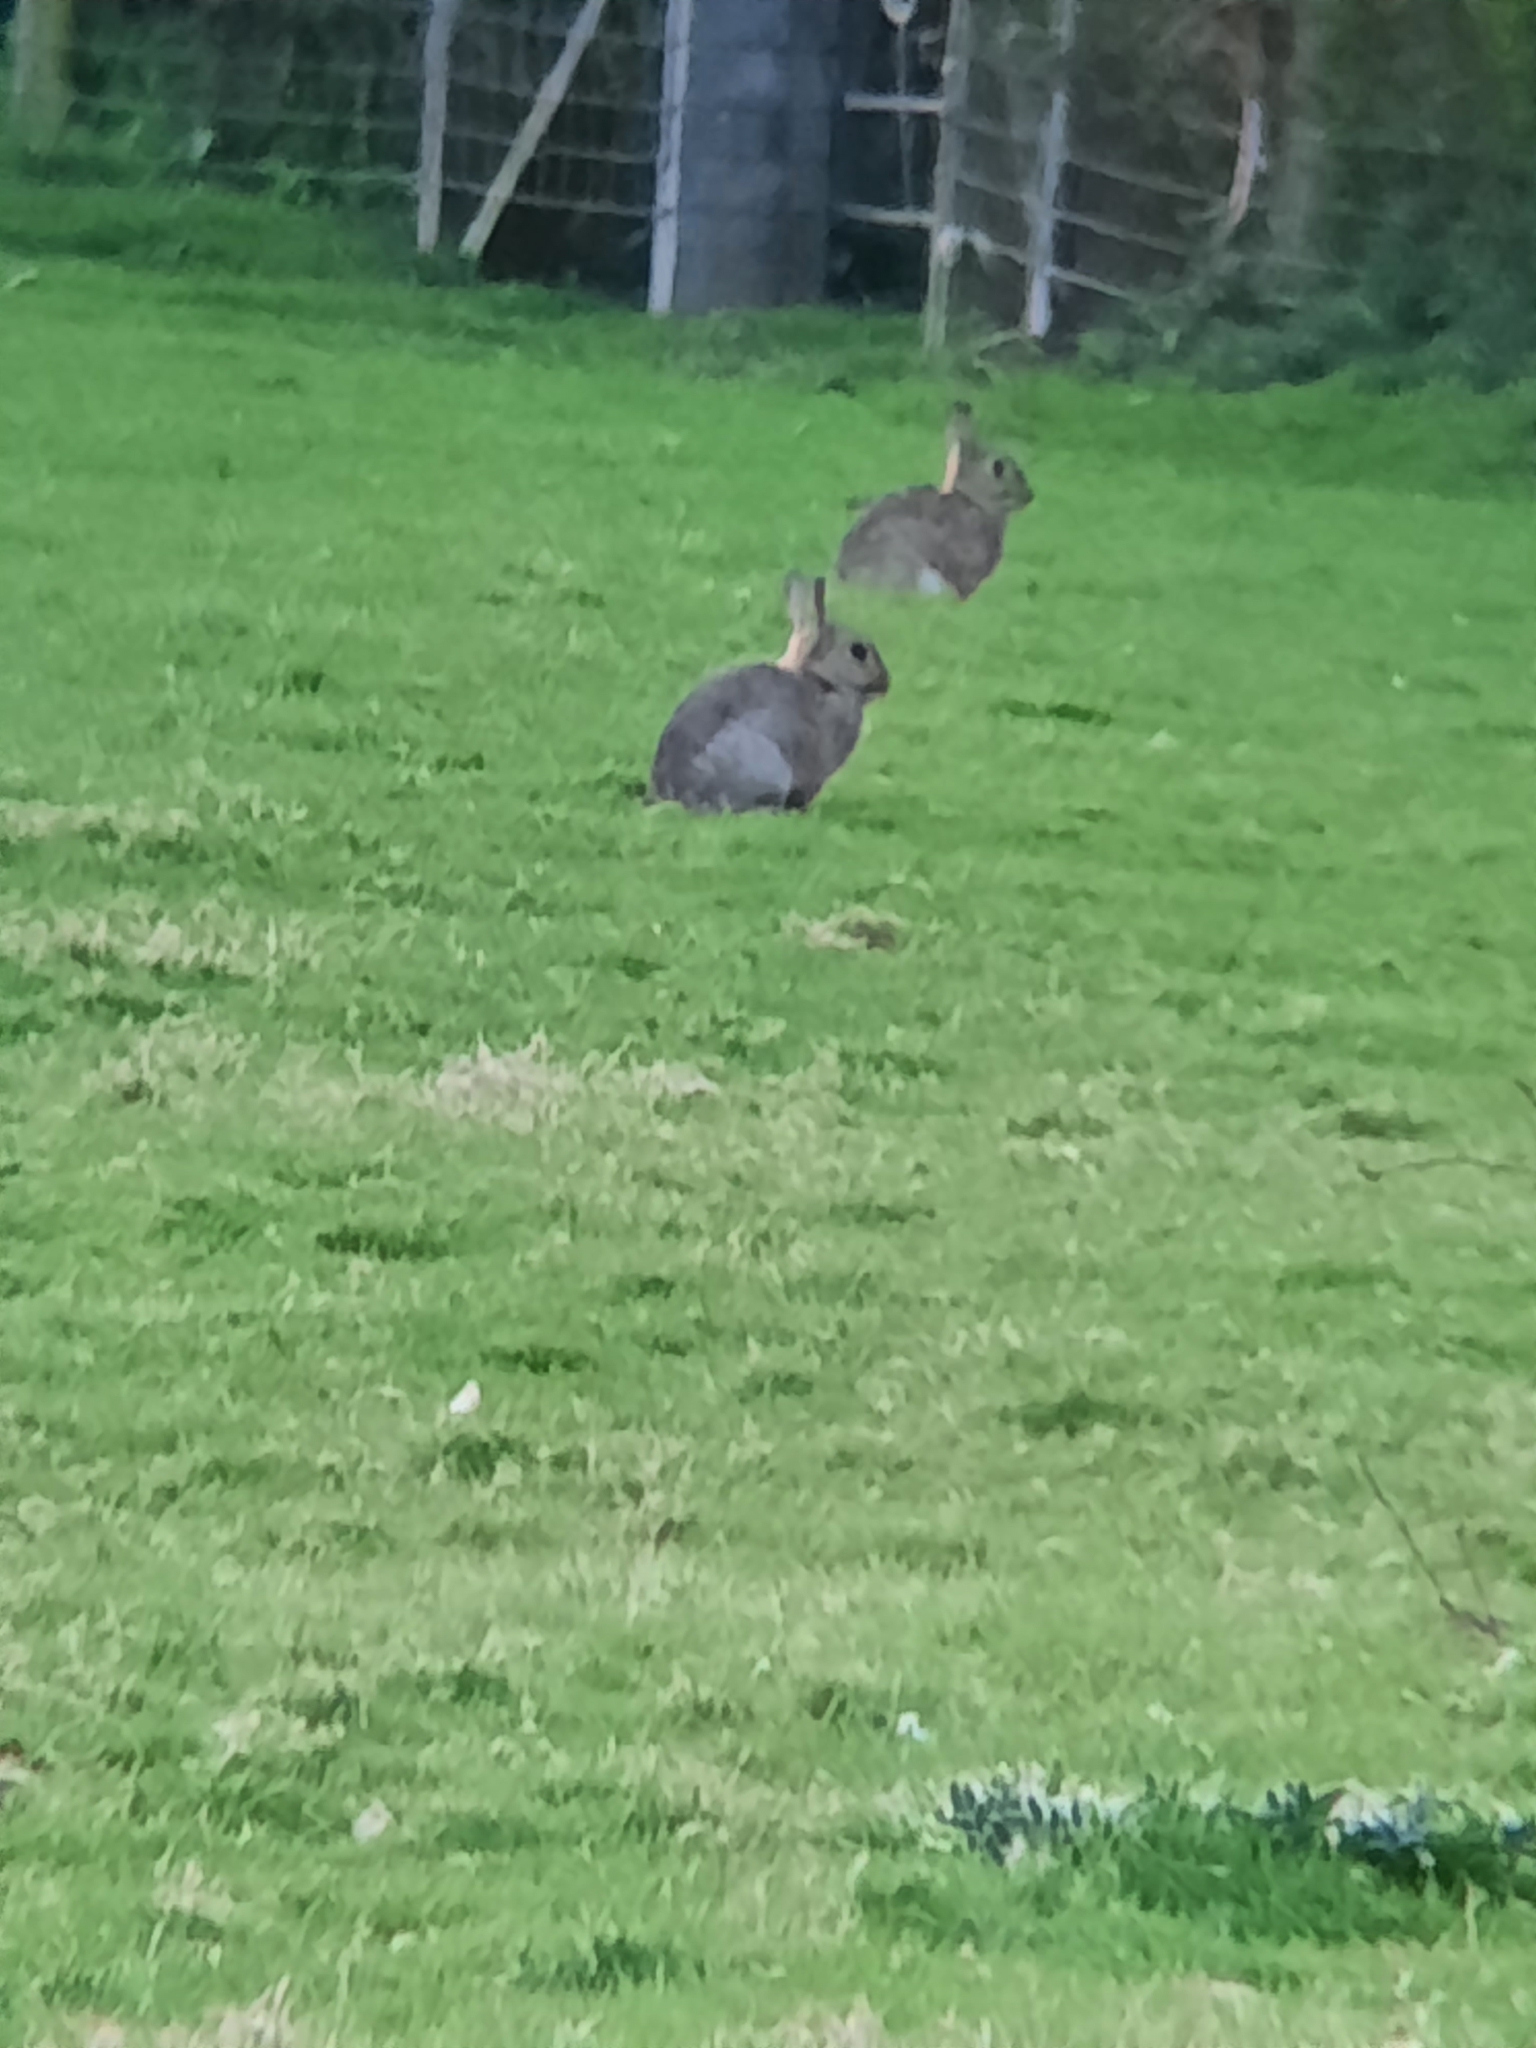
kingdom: Animalia
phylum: Chordata
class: Mammalia
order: Lagomorpha
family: Leporidae
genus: Oryctolagus
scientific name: Oryctolagus cuniculus
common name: European rabbit
